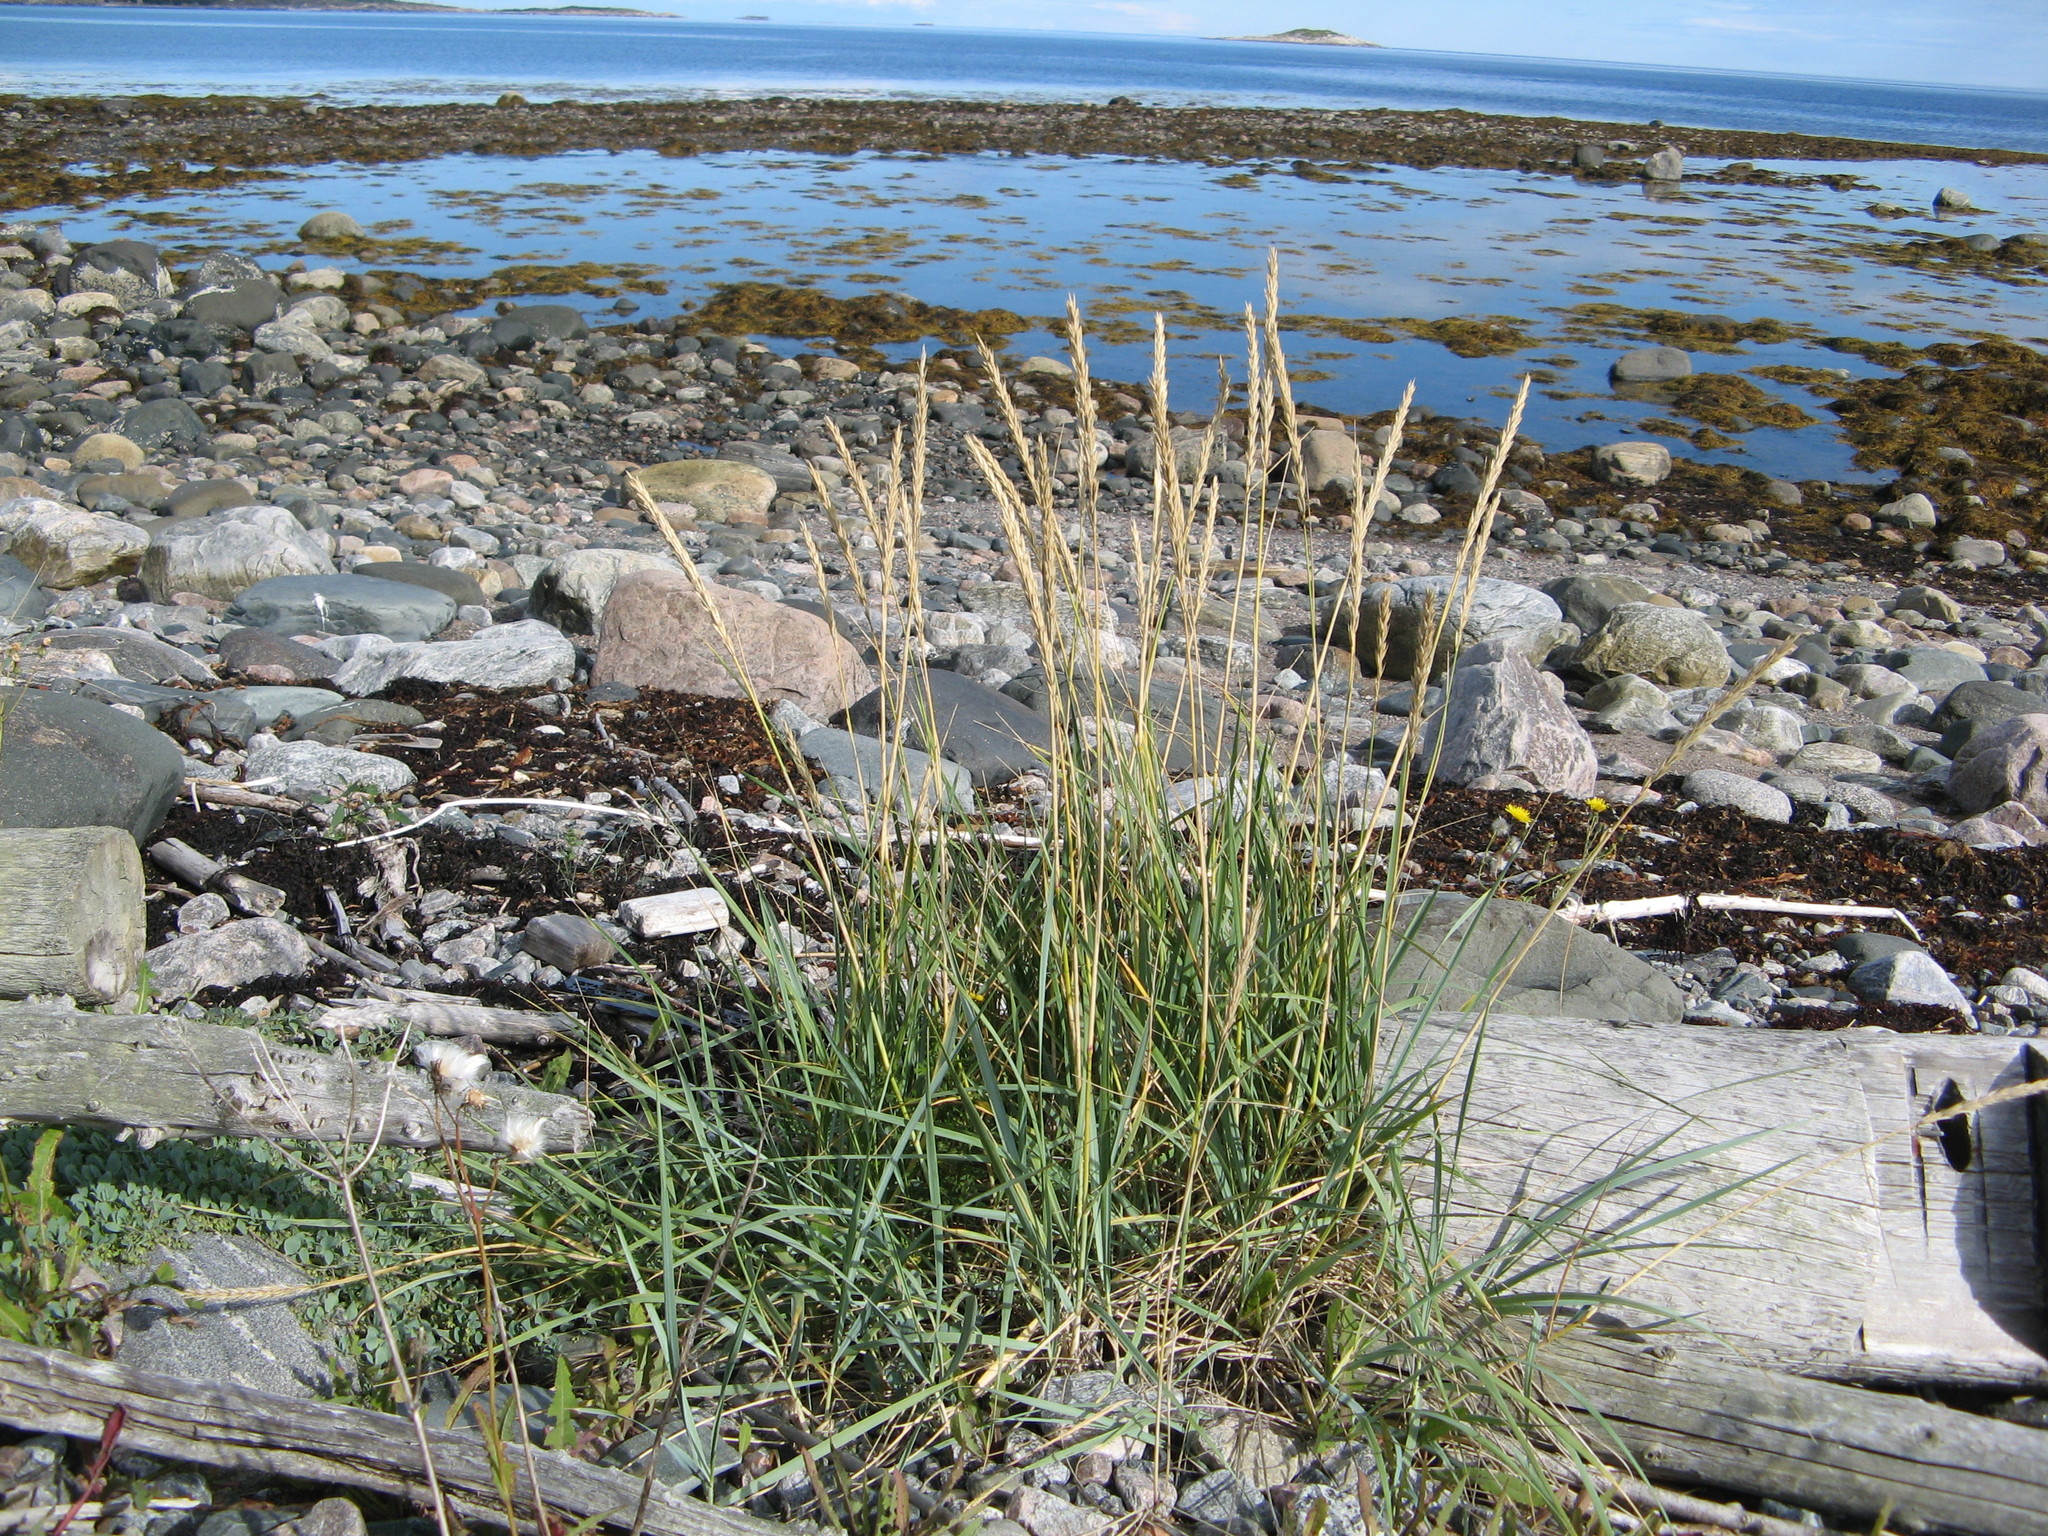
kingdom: Plantae
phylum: Tracheophyta
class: Liliopsida
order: Poales
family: Poaceae
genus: Leymus
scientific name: Leymus arenarius
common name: Lyme-grass
